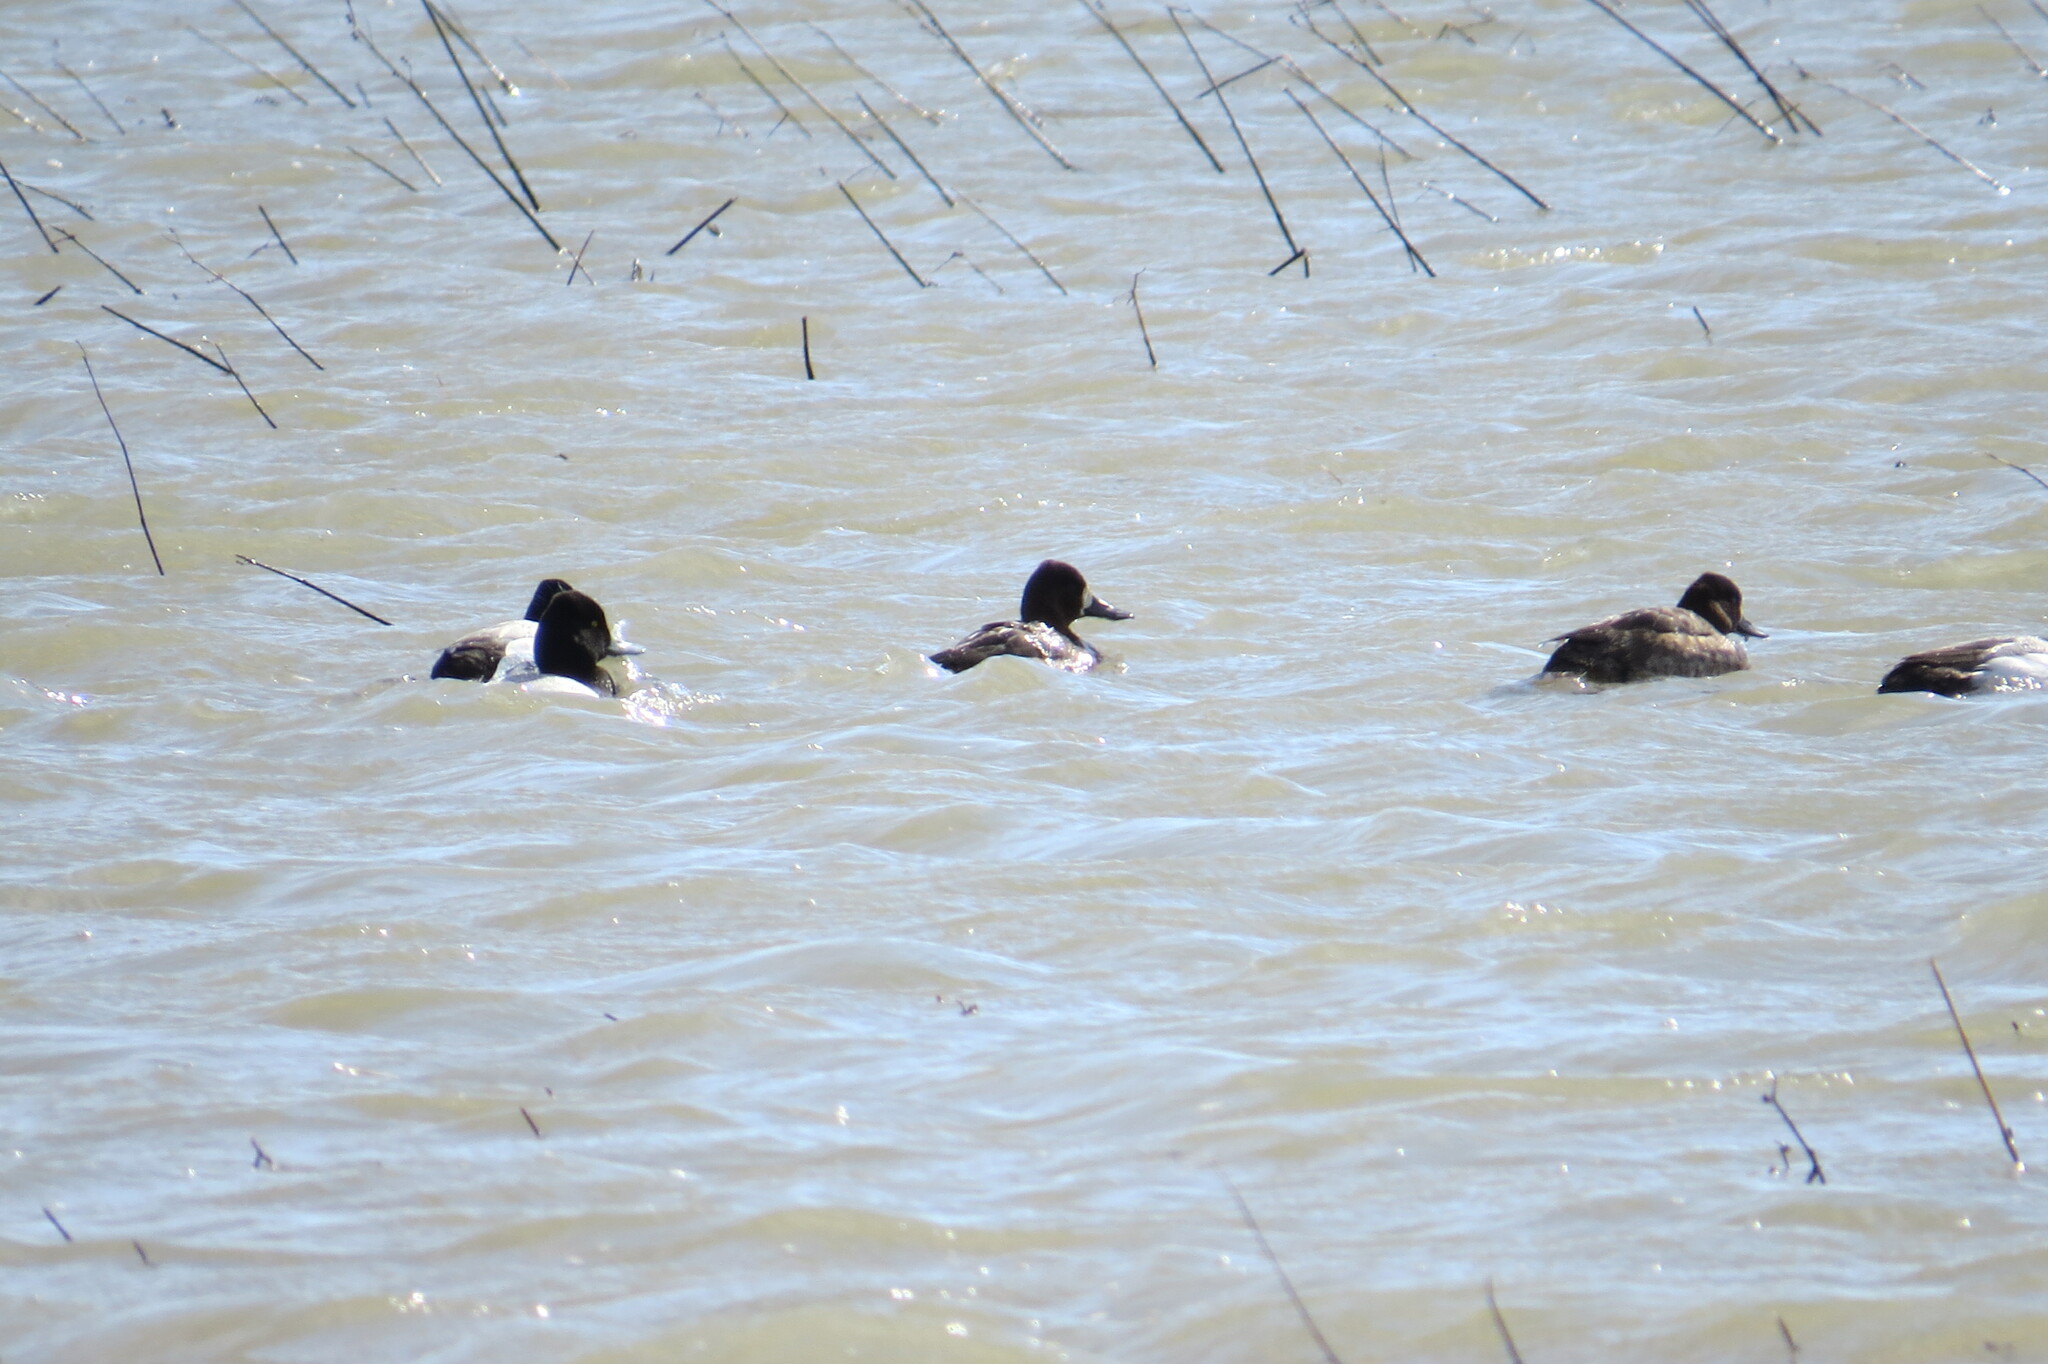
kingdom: Animalia
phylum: Chordata
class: Aves
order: Anseriformes
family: Anatidae
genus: Aythya
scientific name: Aythya affinis
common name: Lesser scaup
